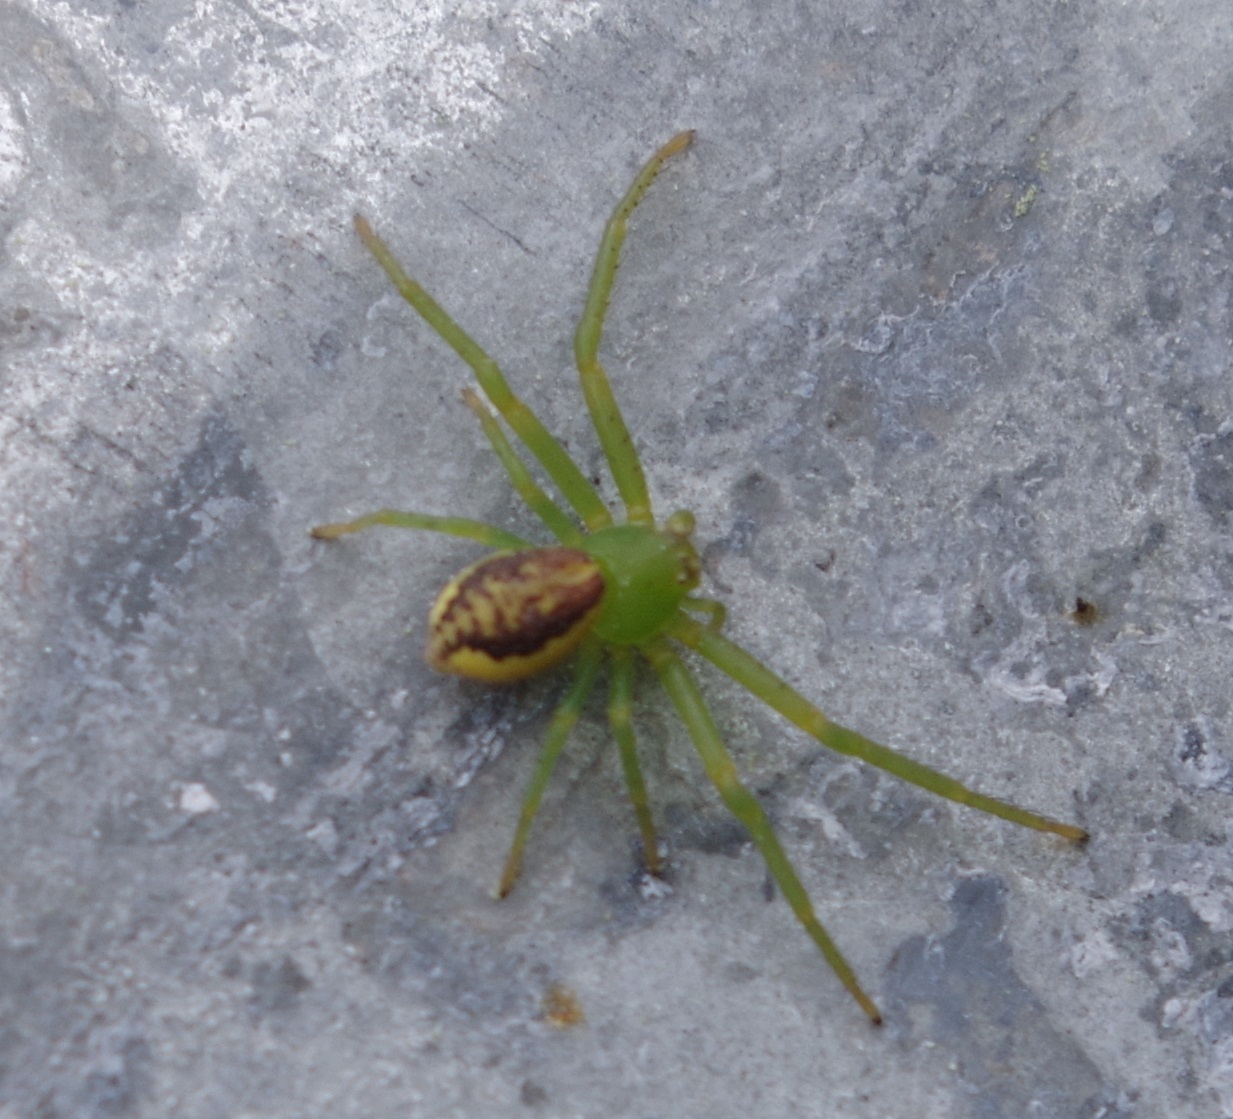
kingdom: Animalia
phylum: Arthropoda
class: Arachnida
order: Araneae
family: Thomisidae
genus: Diaea
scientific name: Diaea dorsata
